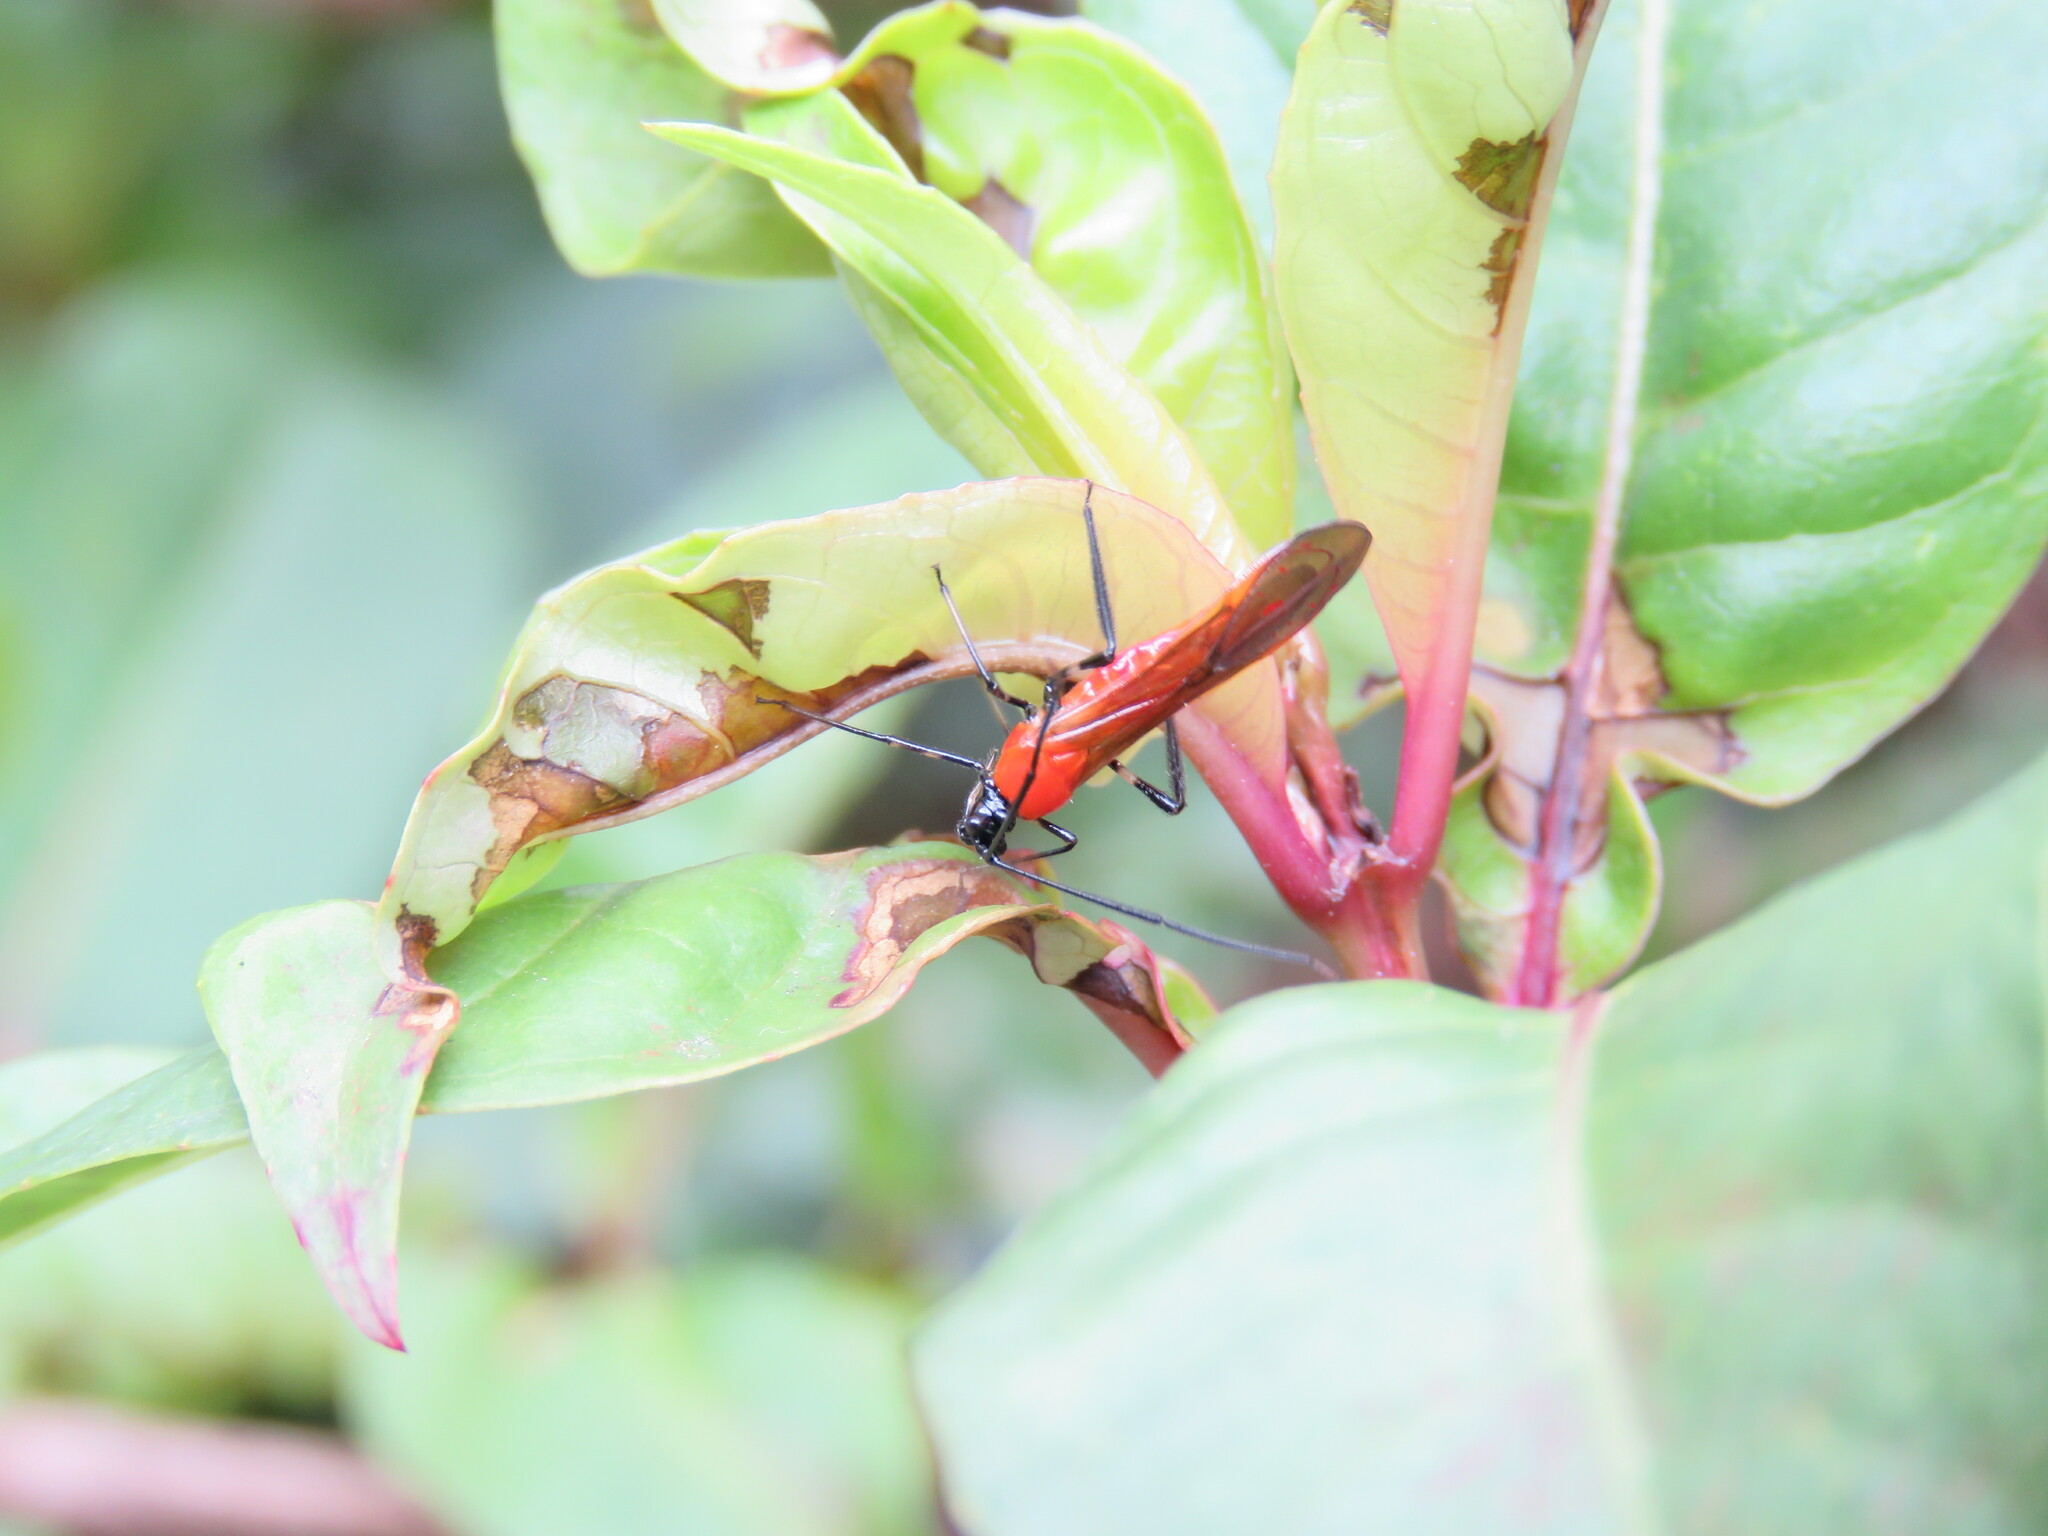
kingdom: Animalia
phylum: Arthropoda
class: Insecta
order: Hemiptera
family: Miridae
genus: Monalonion
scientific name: Monalonion velezangeli
